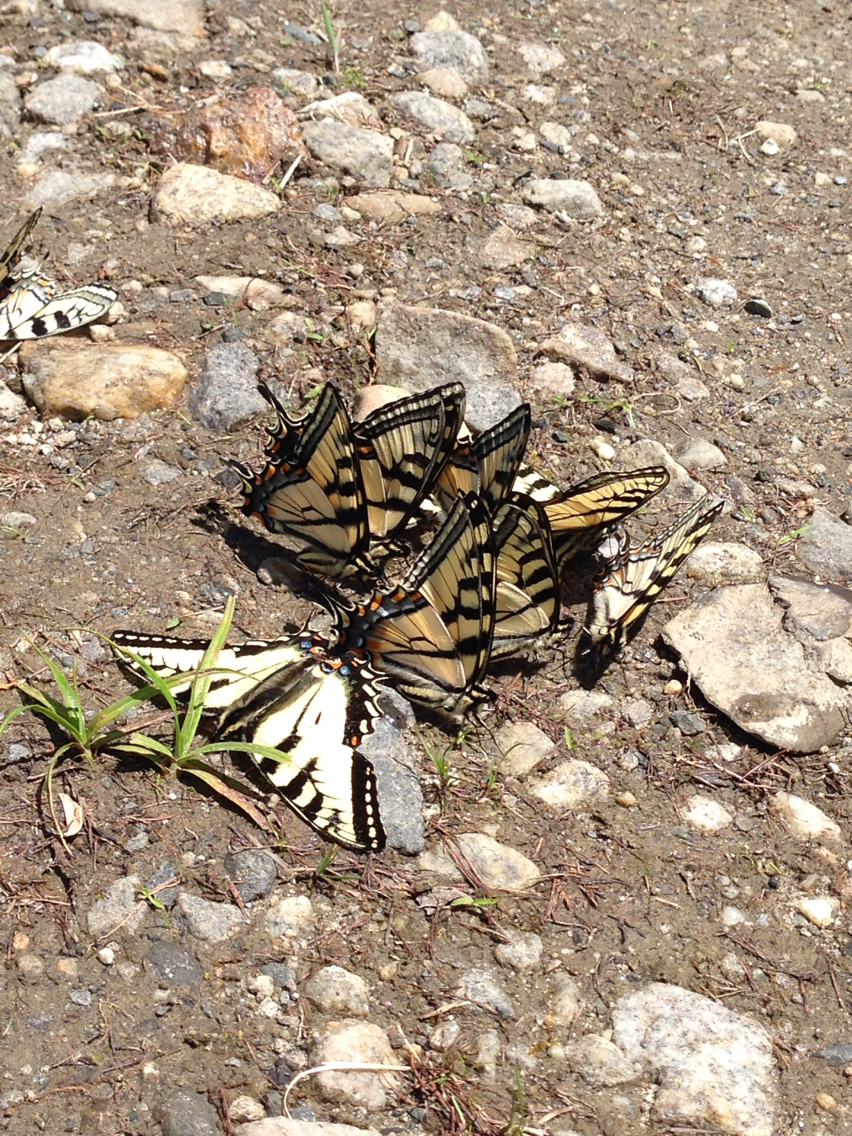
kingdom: Animalia
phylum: Arthropoda
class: Insecta
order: Lepidoptera
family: Papilionidae
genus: Papilio
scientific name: Papilio canadensis
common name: Canadian tiger swallowtail
